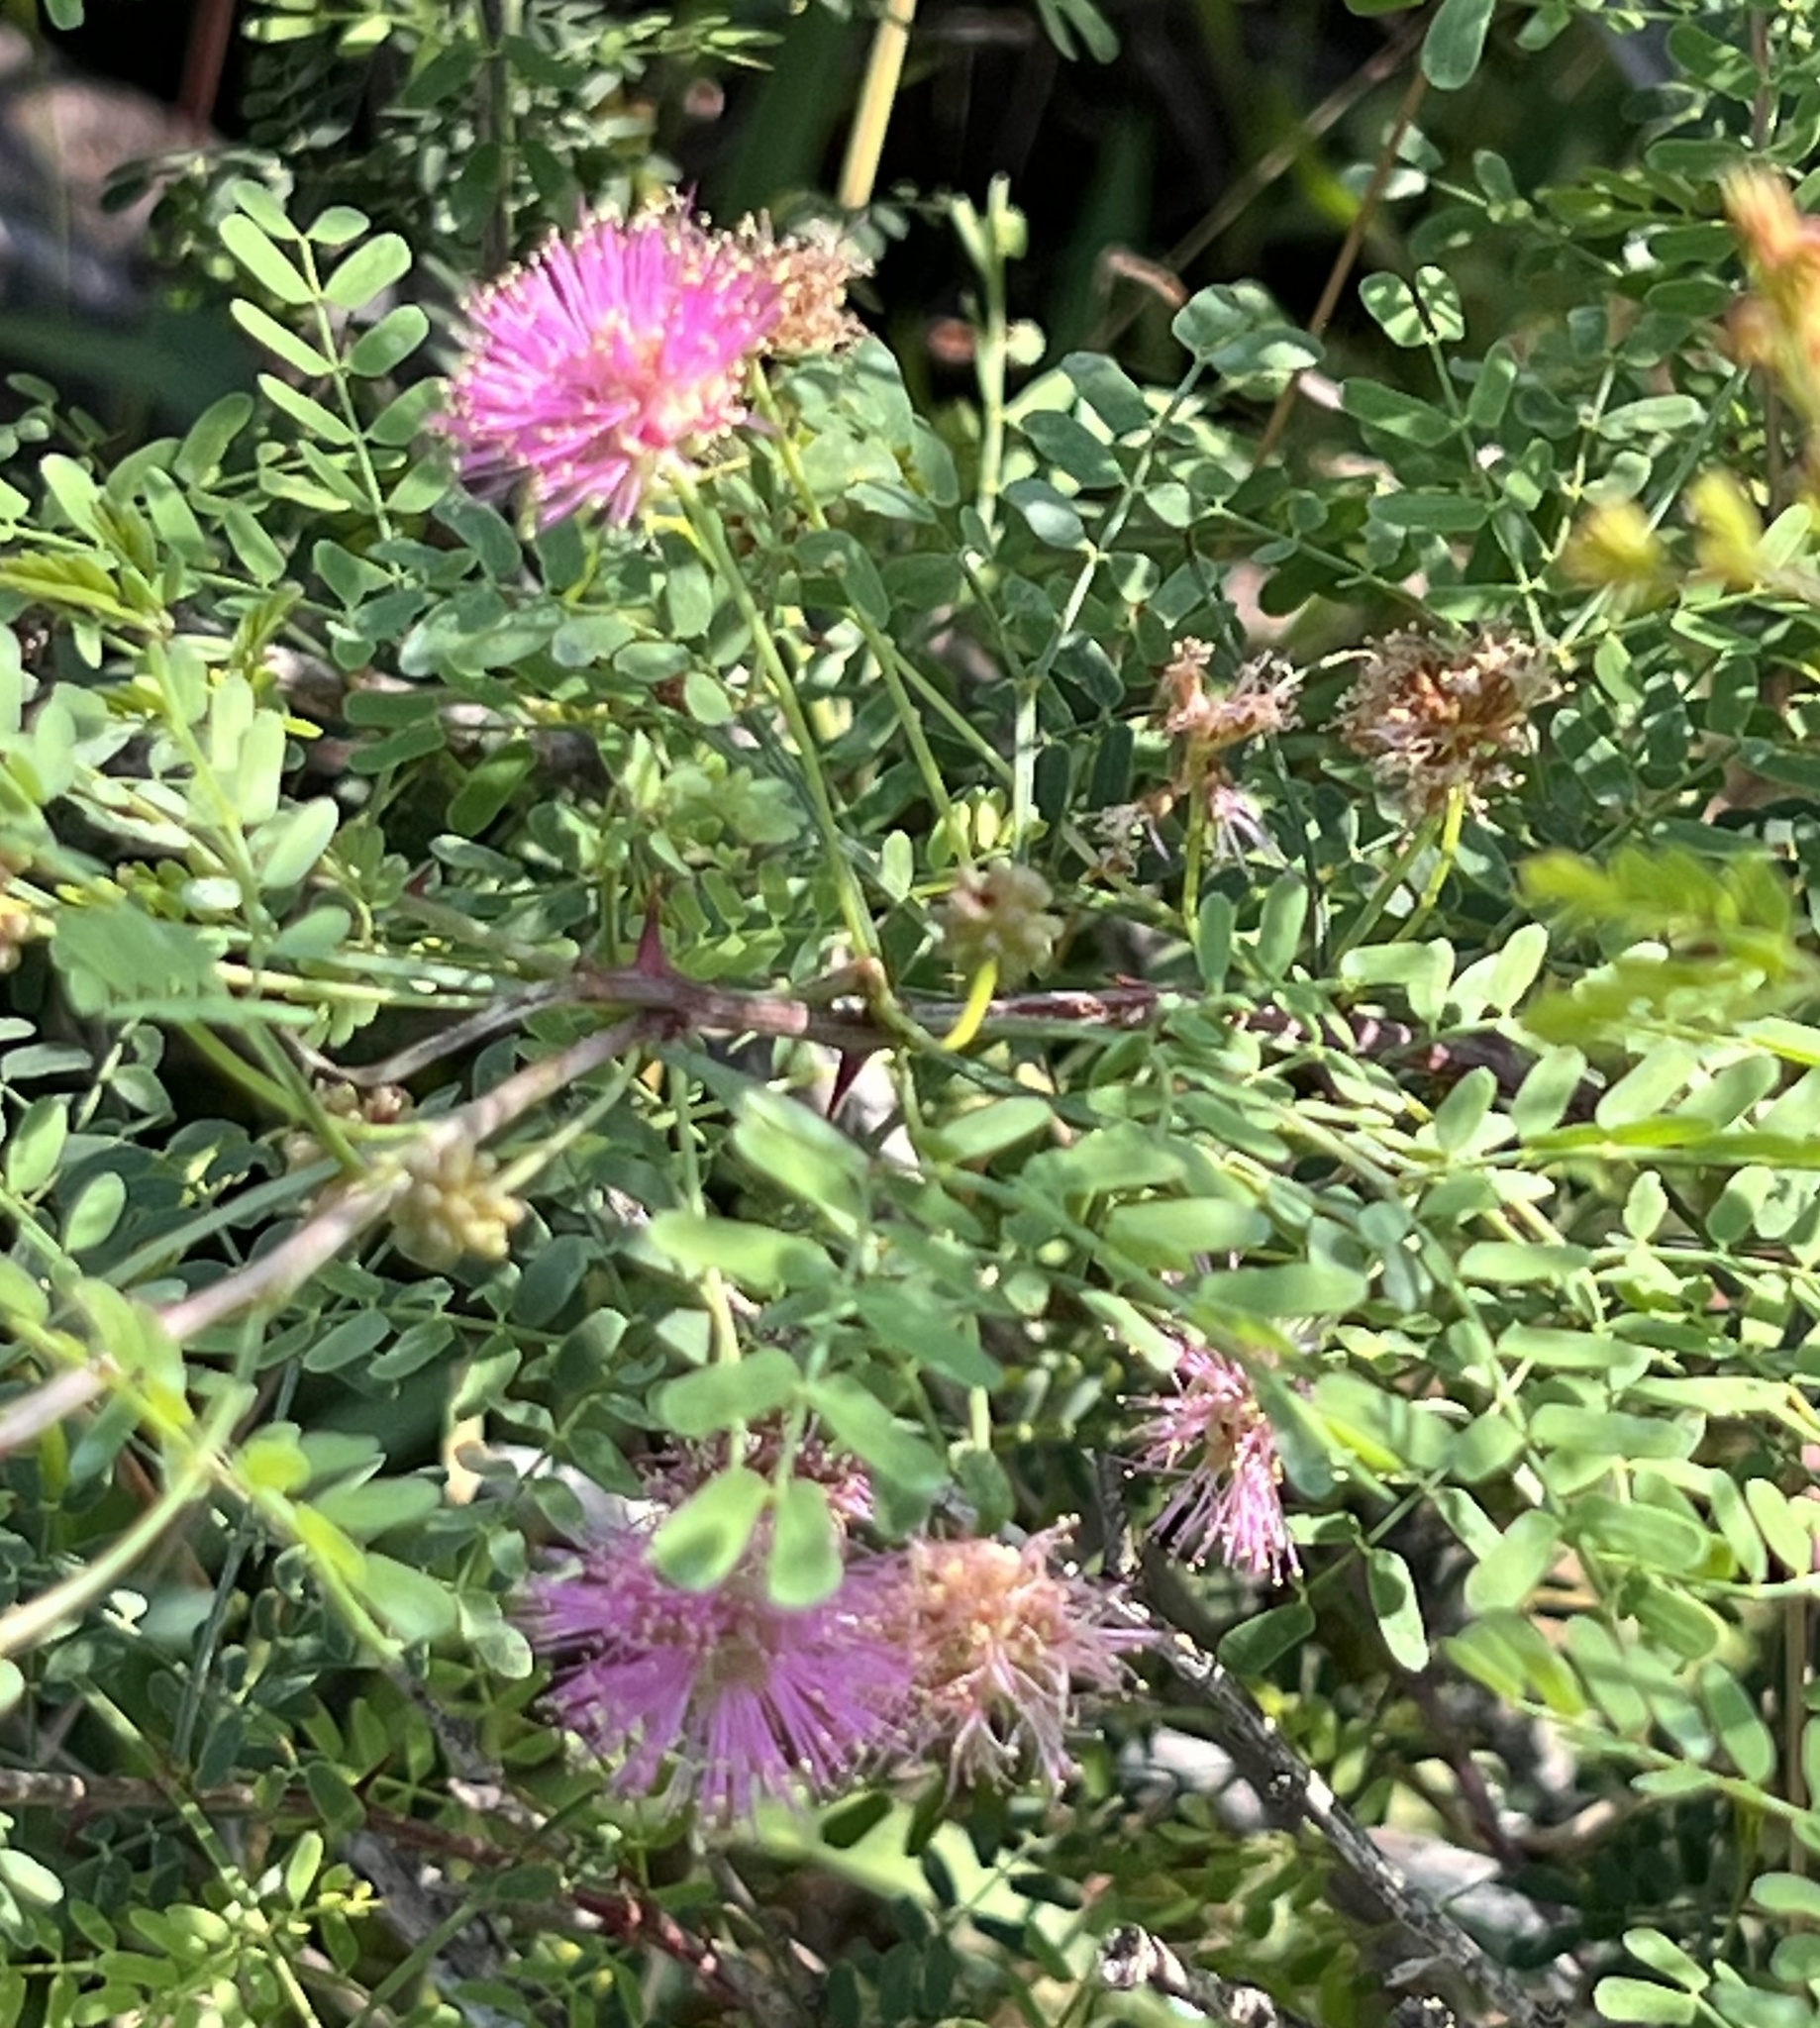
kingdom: Plantae
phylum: Tracheophyta
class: Magnoliopsida
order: Fabales
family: Fabaceae
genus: Mimosa
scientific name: Mimosa borealis
